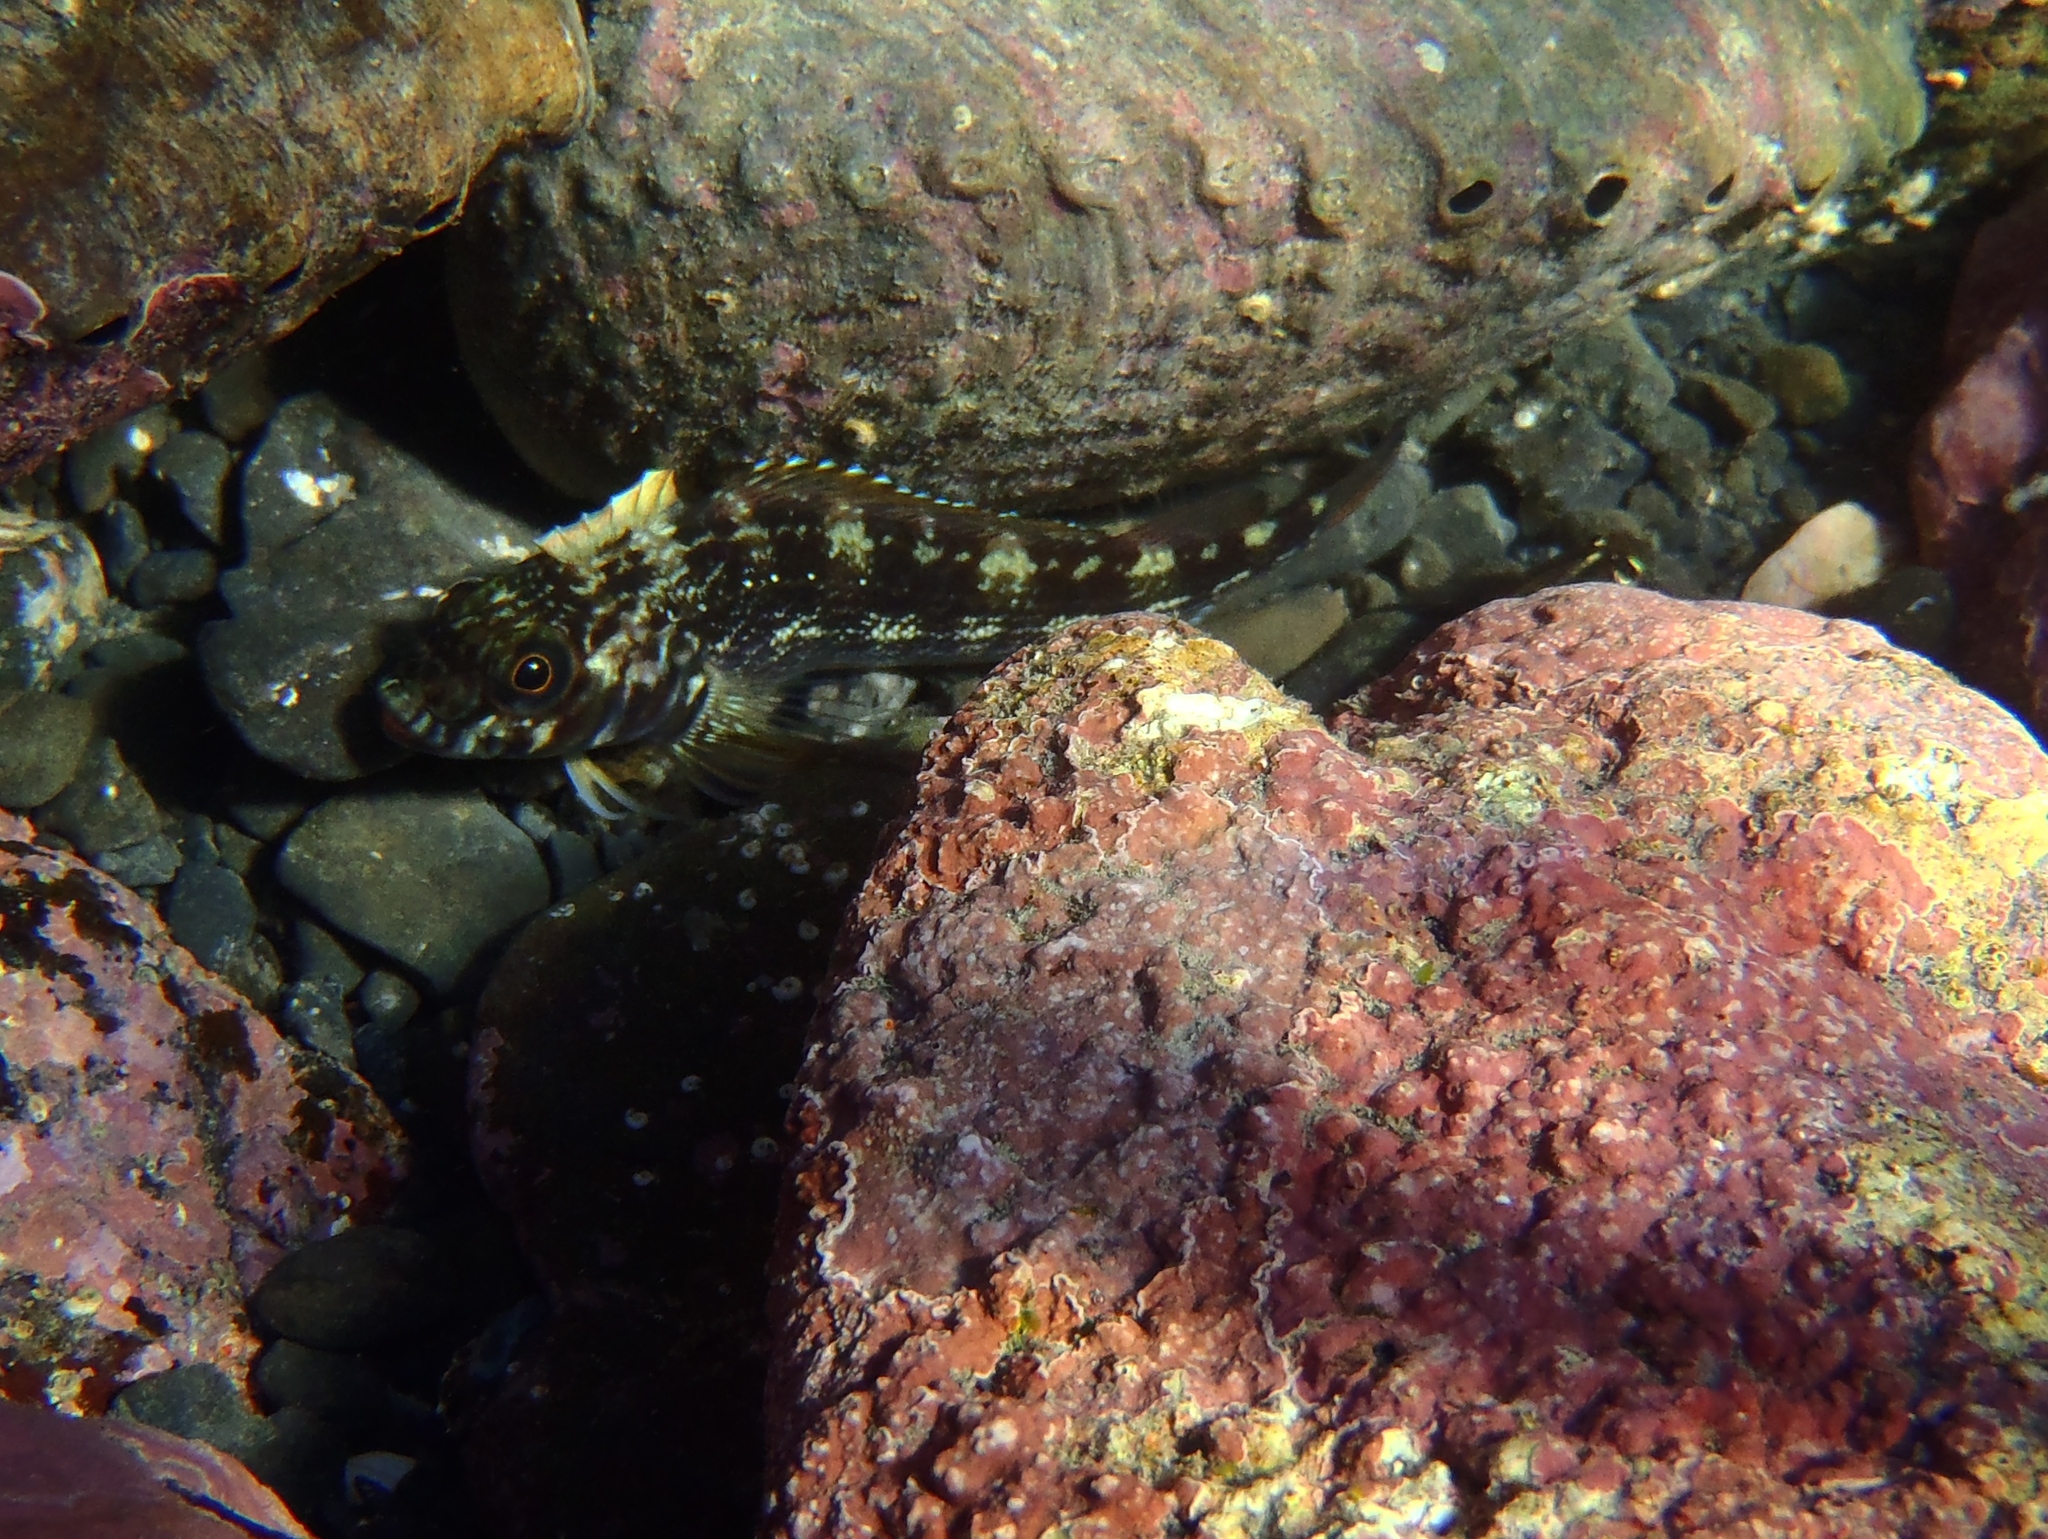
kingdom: Animalia
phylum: Chordata
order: Perciformes
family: Tripterygiidae
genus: Forsterygion
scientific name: Forsterygion varium
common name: Variable triplefin
